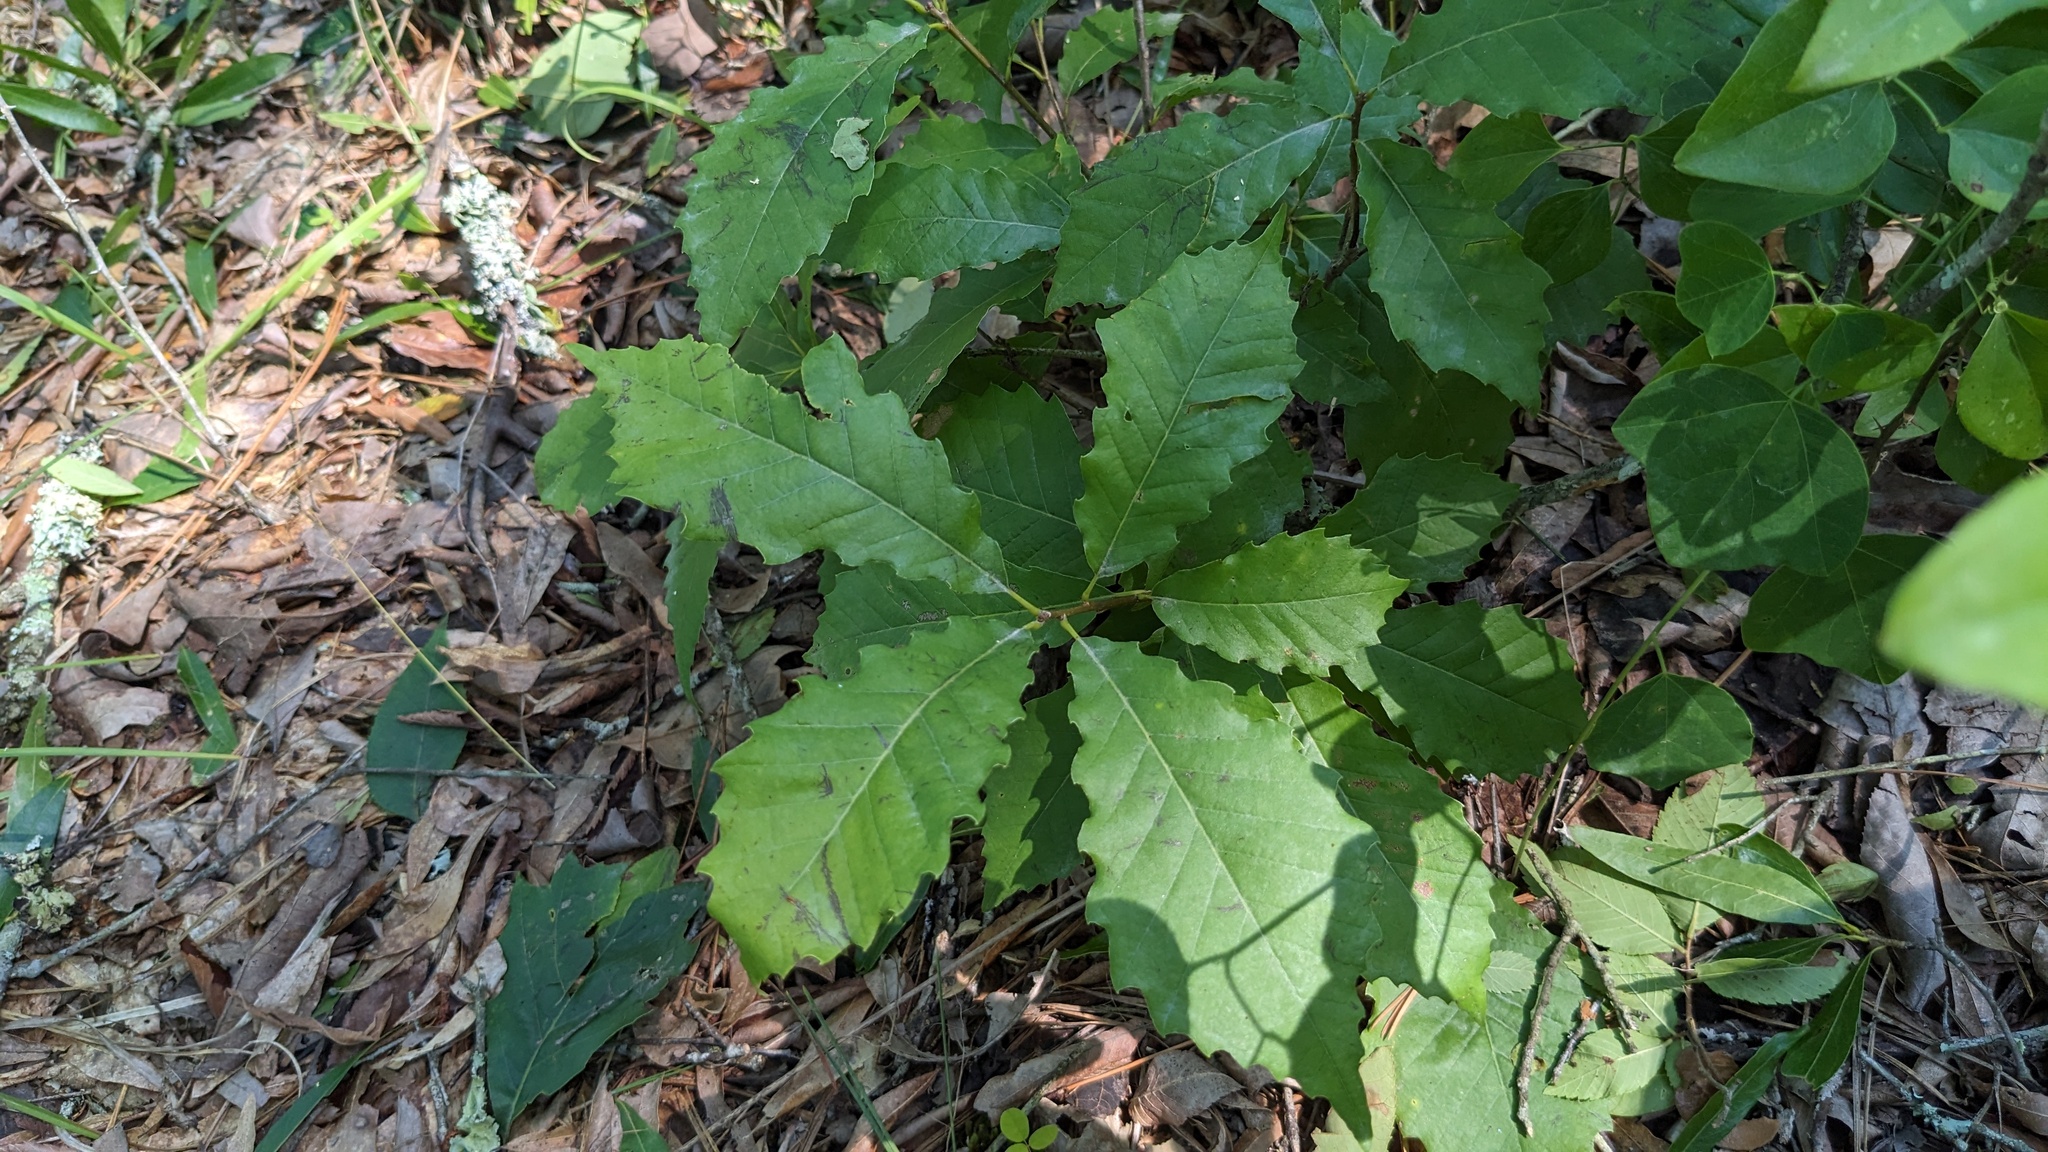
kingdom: Plantae
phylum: Tracheophyta
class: Magnoliopsida
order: Fagales
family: Fagaceae
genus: Quercus
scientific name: Quercus muehlenbergii
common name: Chinkapin oak
